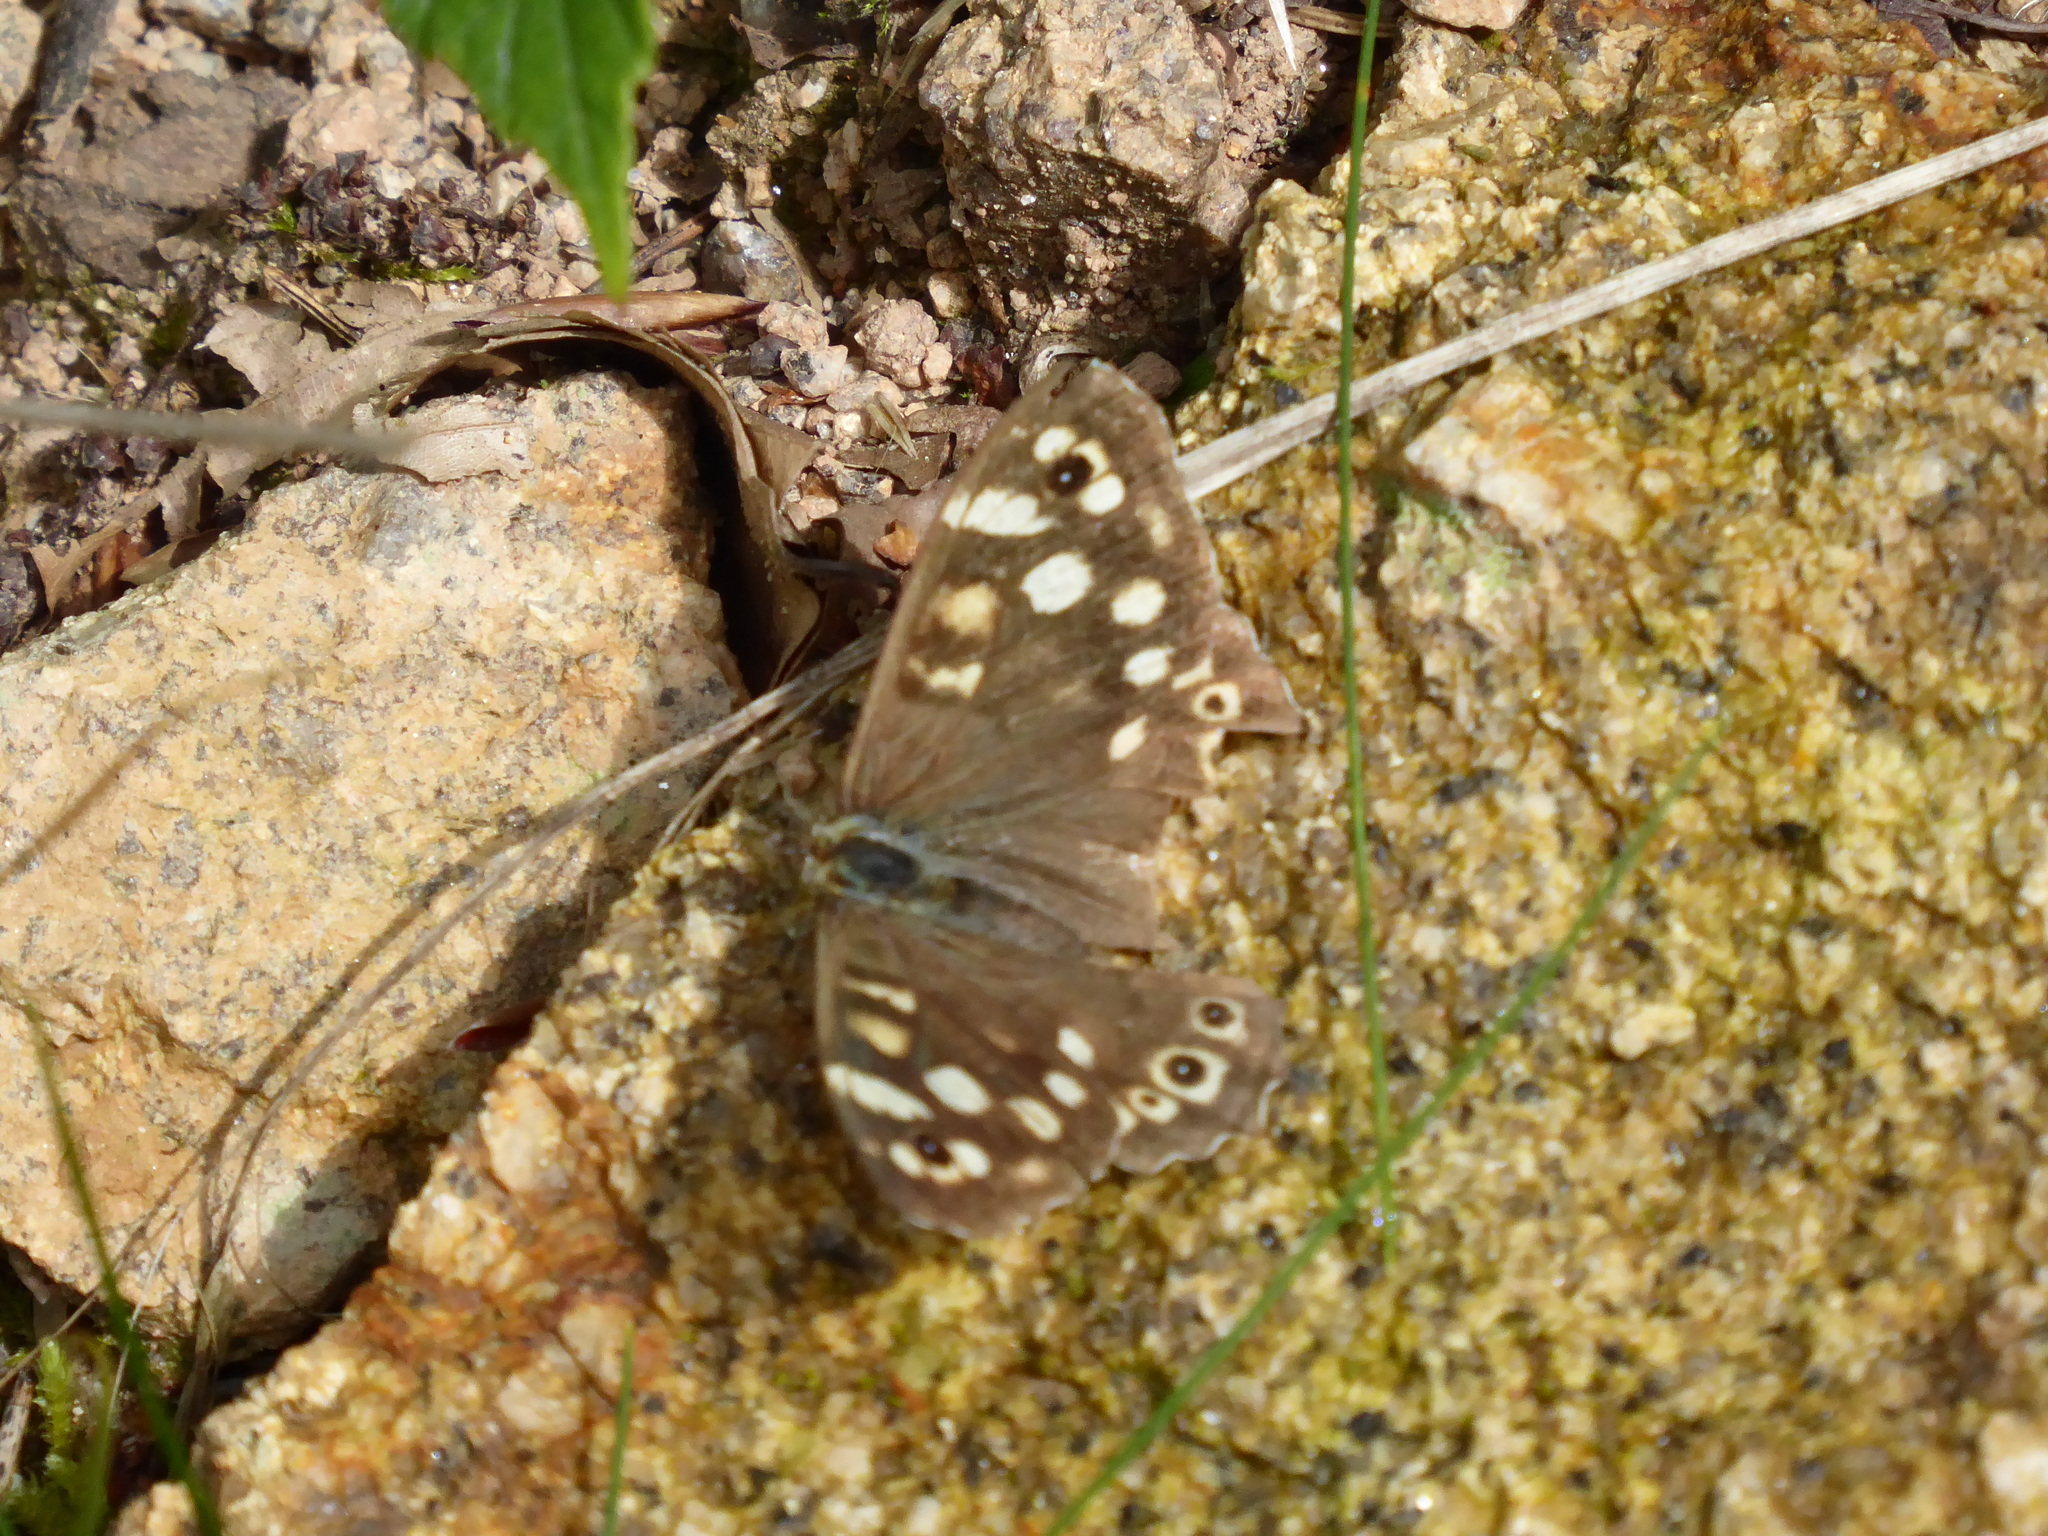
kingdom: Animalia
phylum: Arthropoda
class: Insecta
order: Lepidoptera
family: Nymphalidae
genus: Pararge
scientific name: Pararge aegeria
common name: Speckled wood
